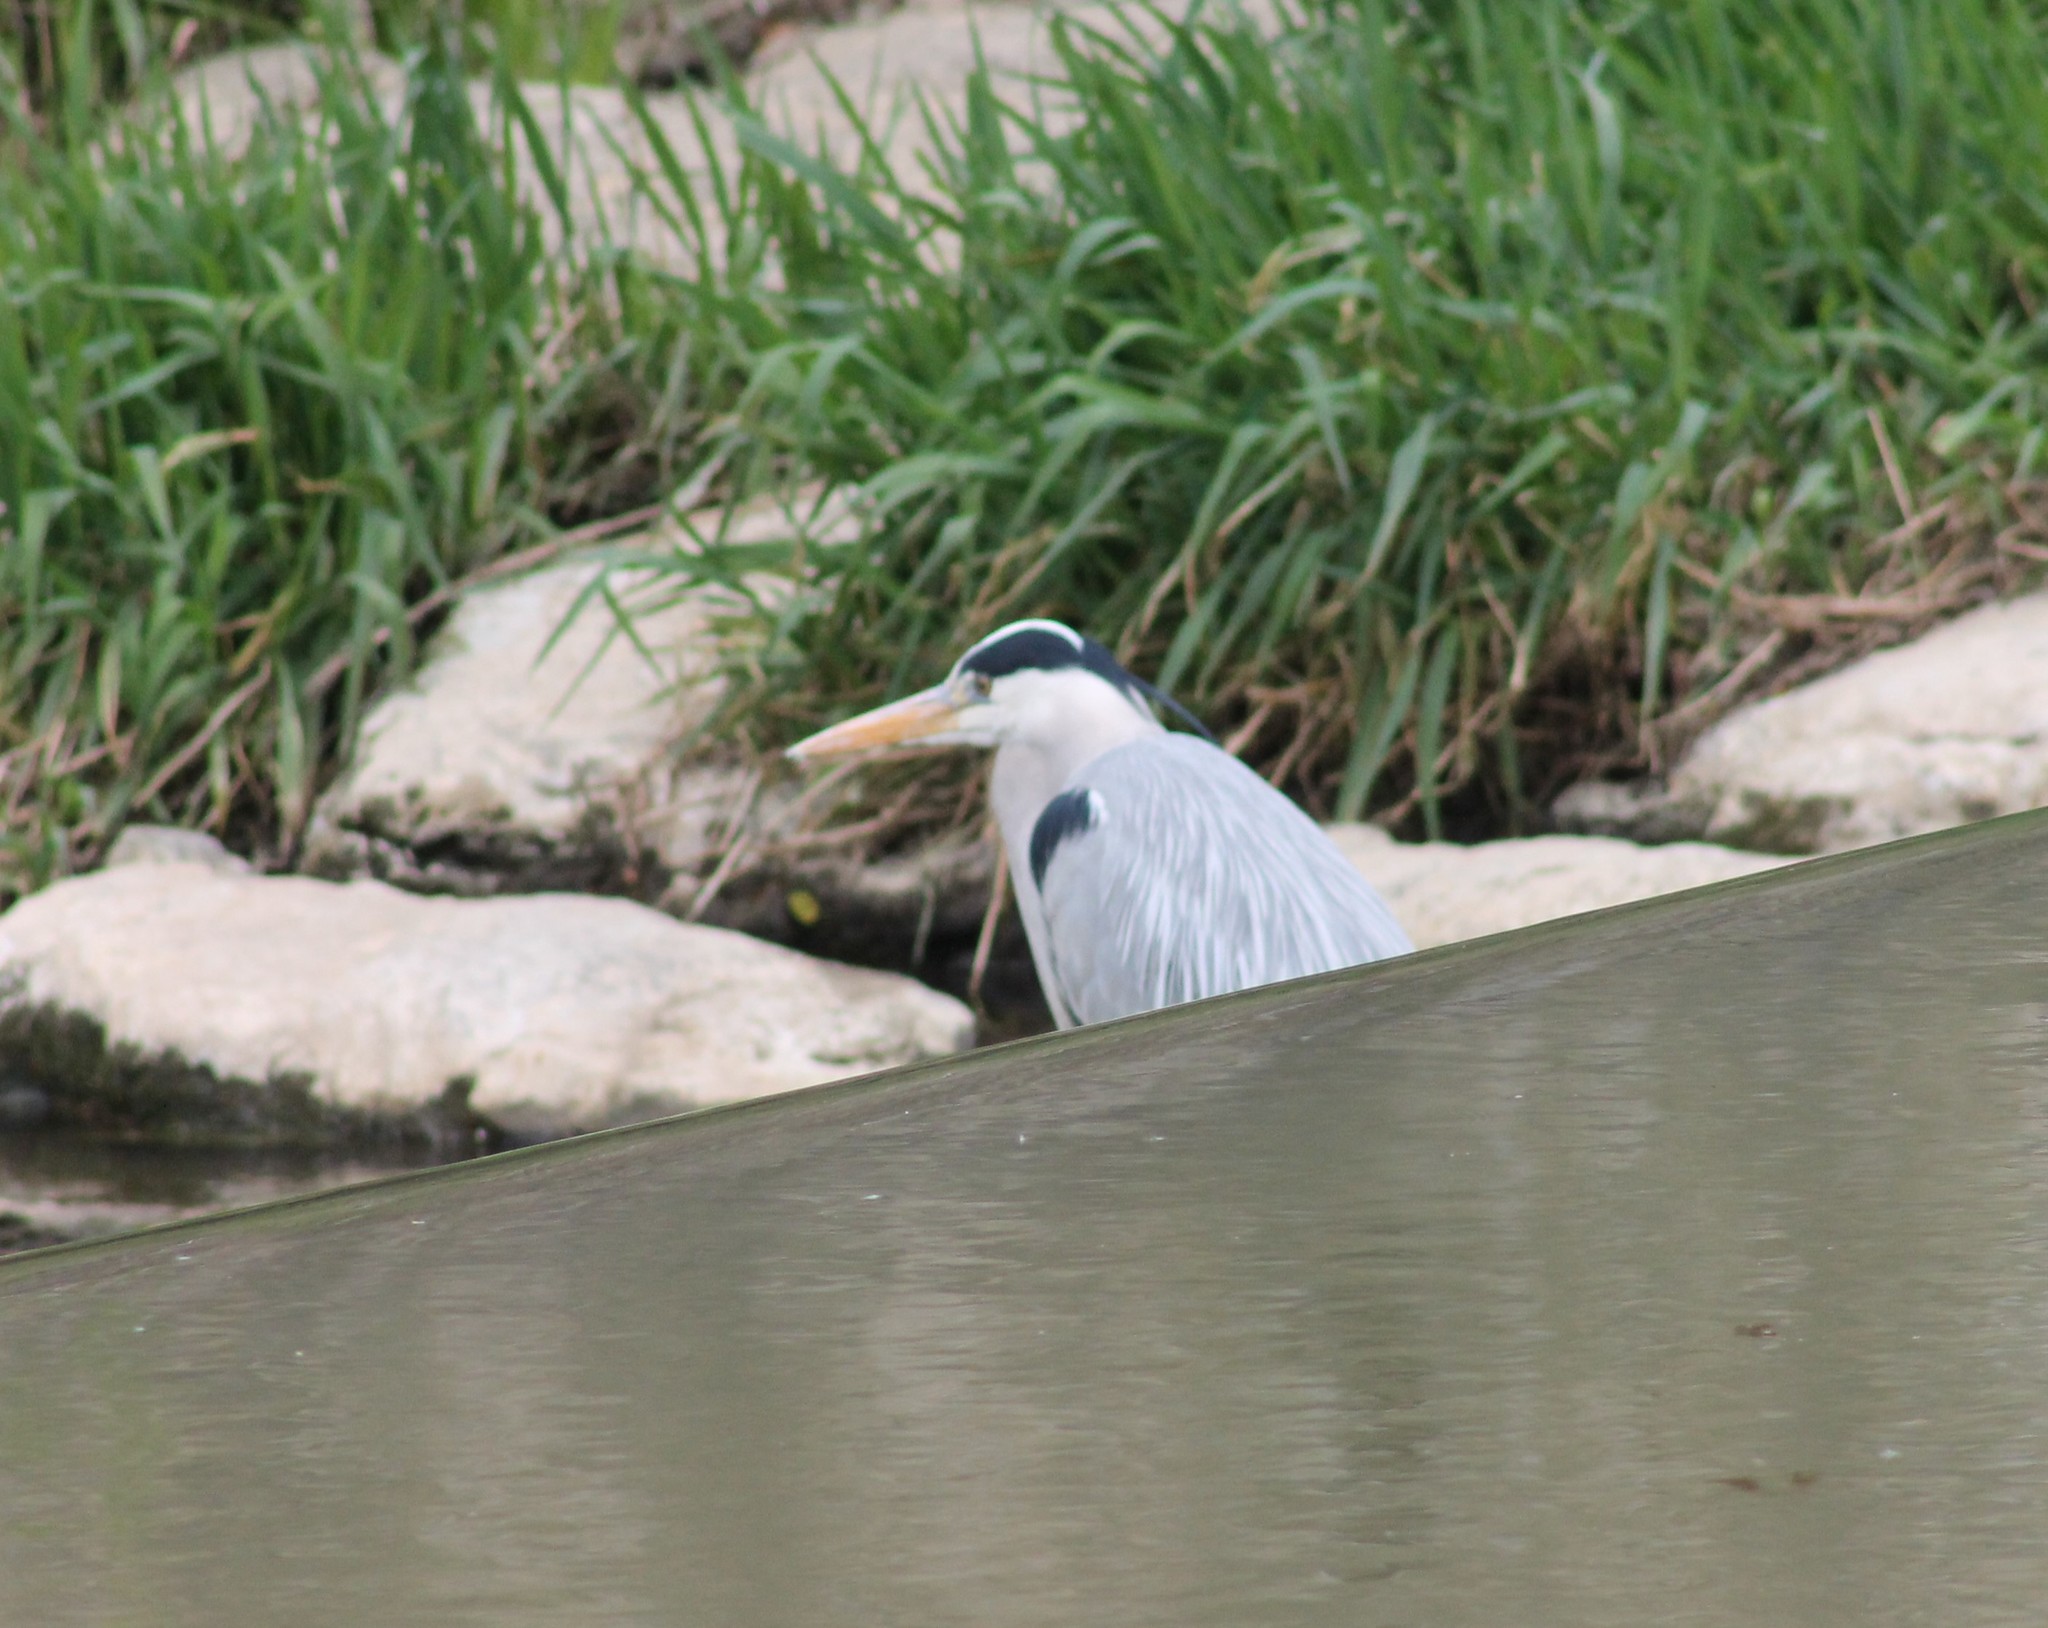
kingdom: Animalia
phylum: Chordata
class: Aves
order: Pelecaniformes
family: Ardeidae
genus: Ardea
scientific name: Ardea cinerea
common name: Grey heron
